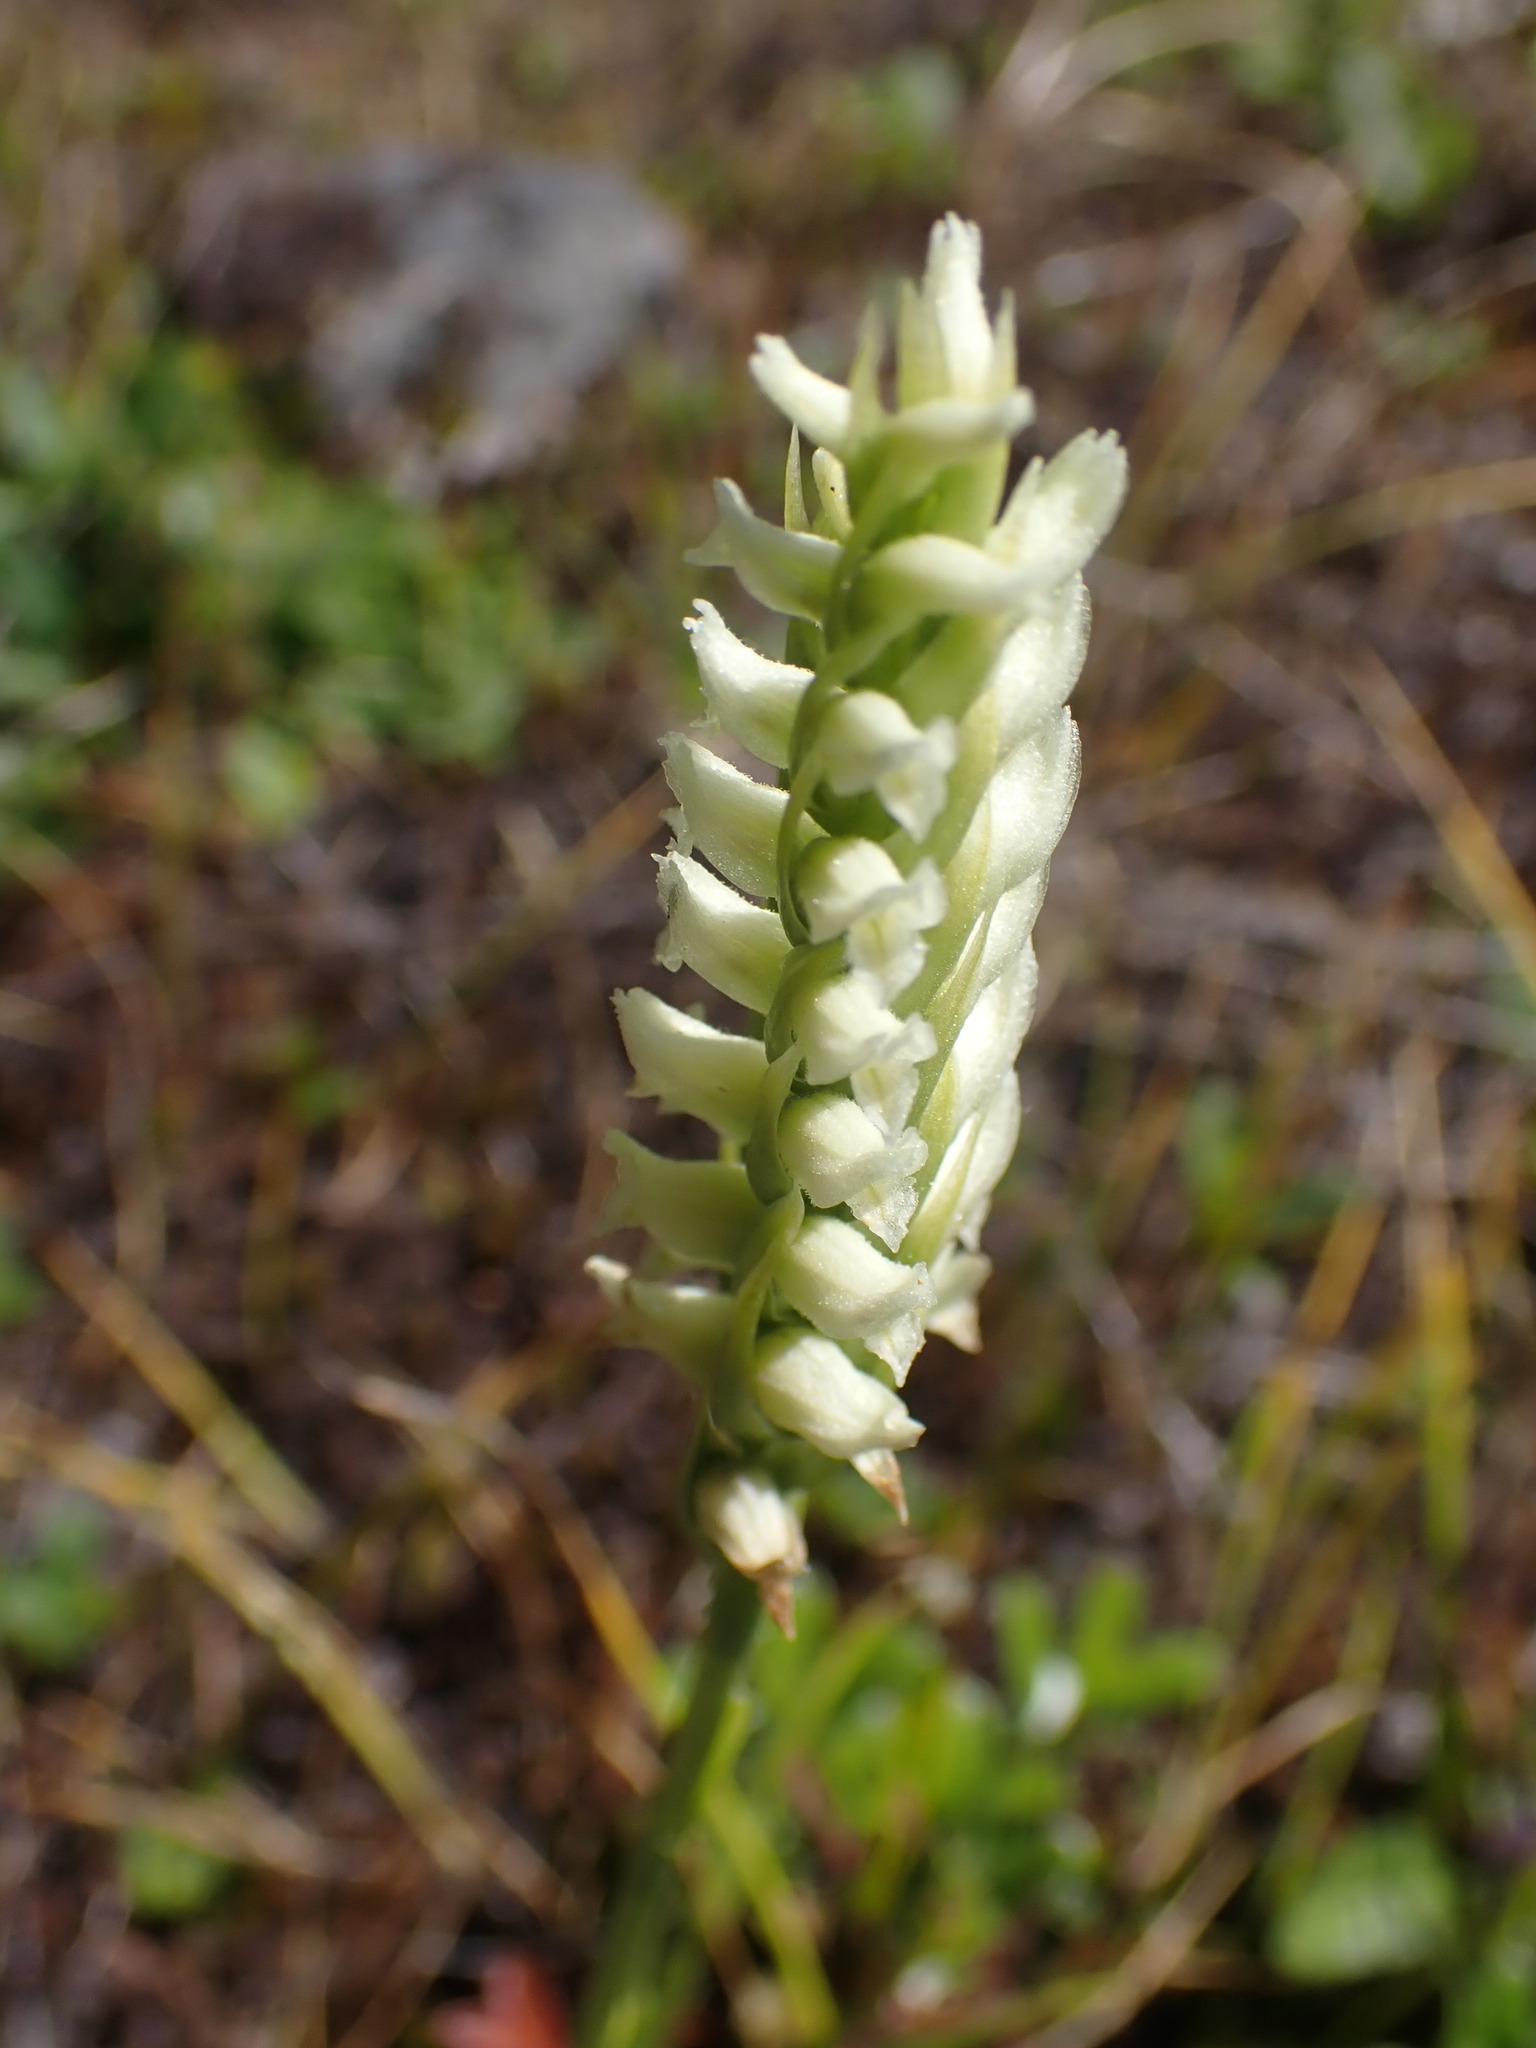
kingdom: Plantae
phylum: Tracheophyta
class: Liliopsida
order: Asparagales
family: Orchidaceae
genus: Spiranthes
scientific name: Spiranthes romanzoffiana
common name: Irish lady's-tresses
